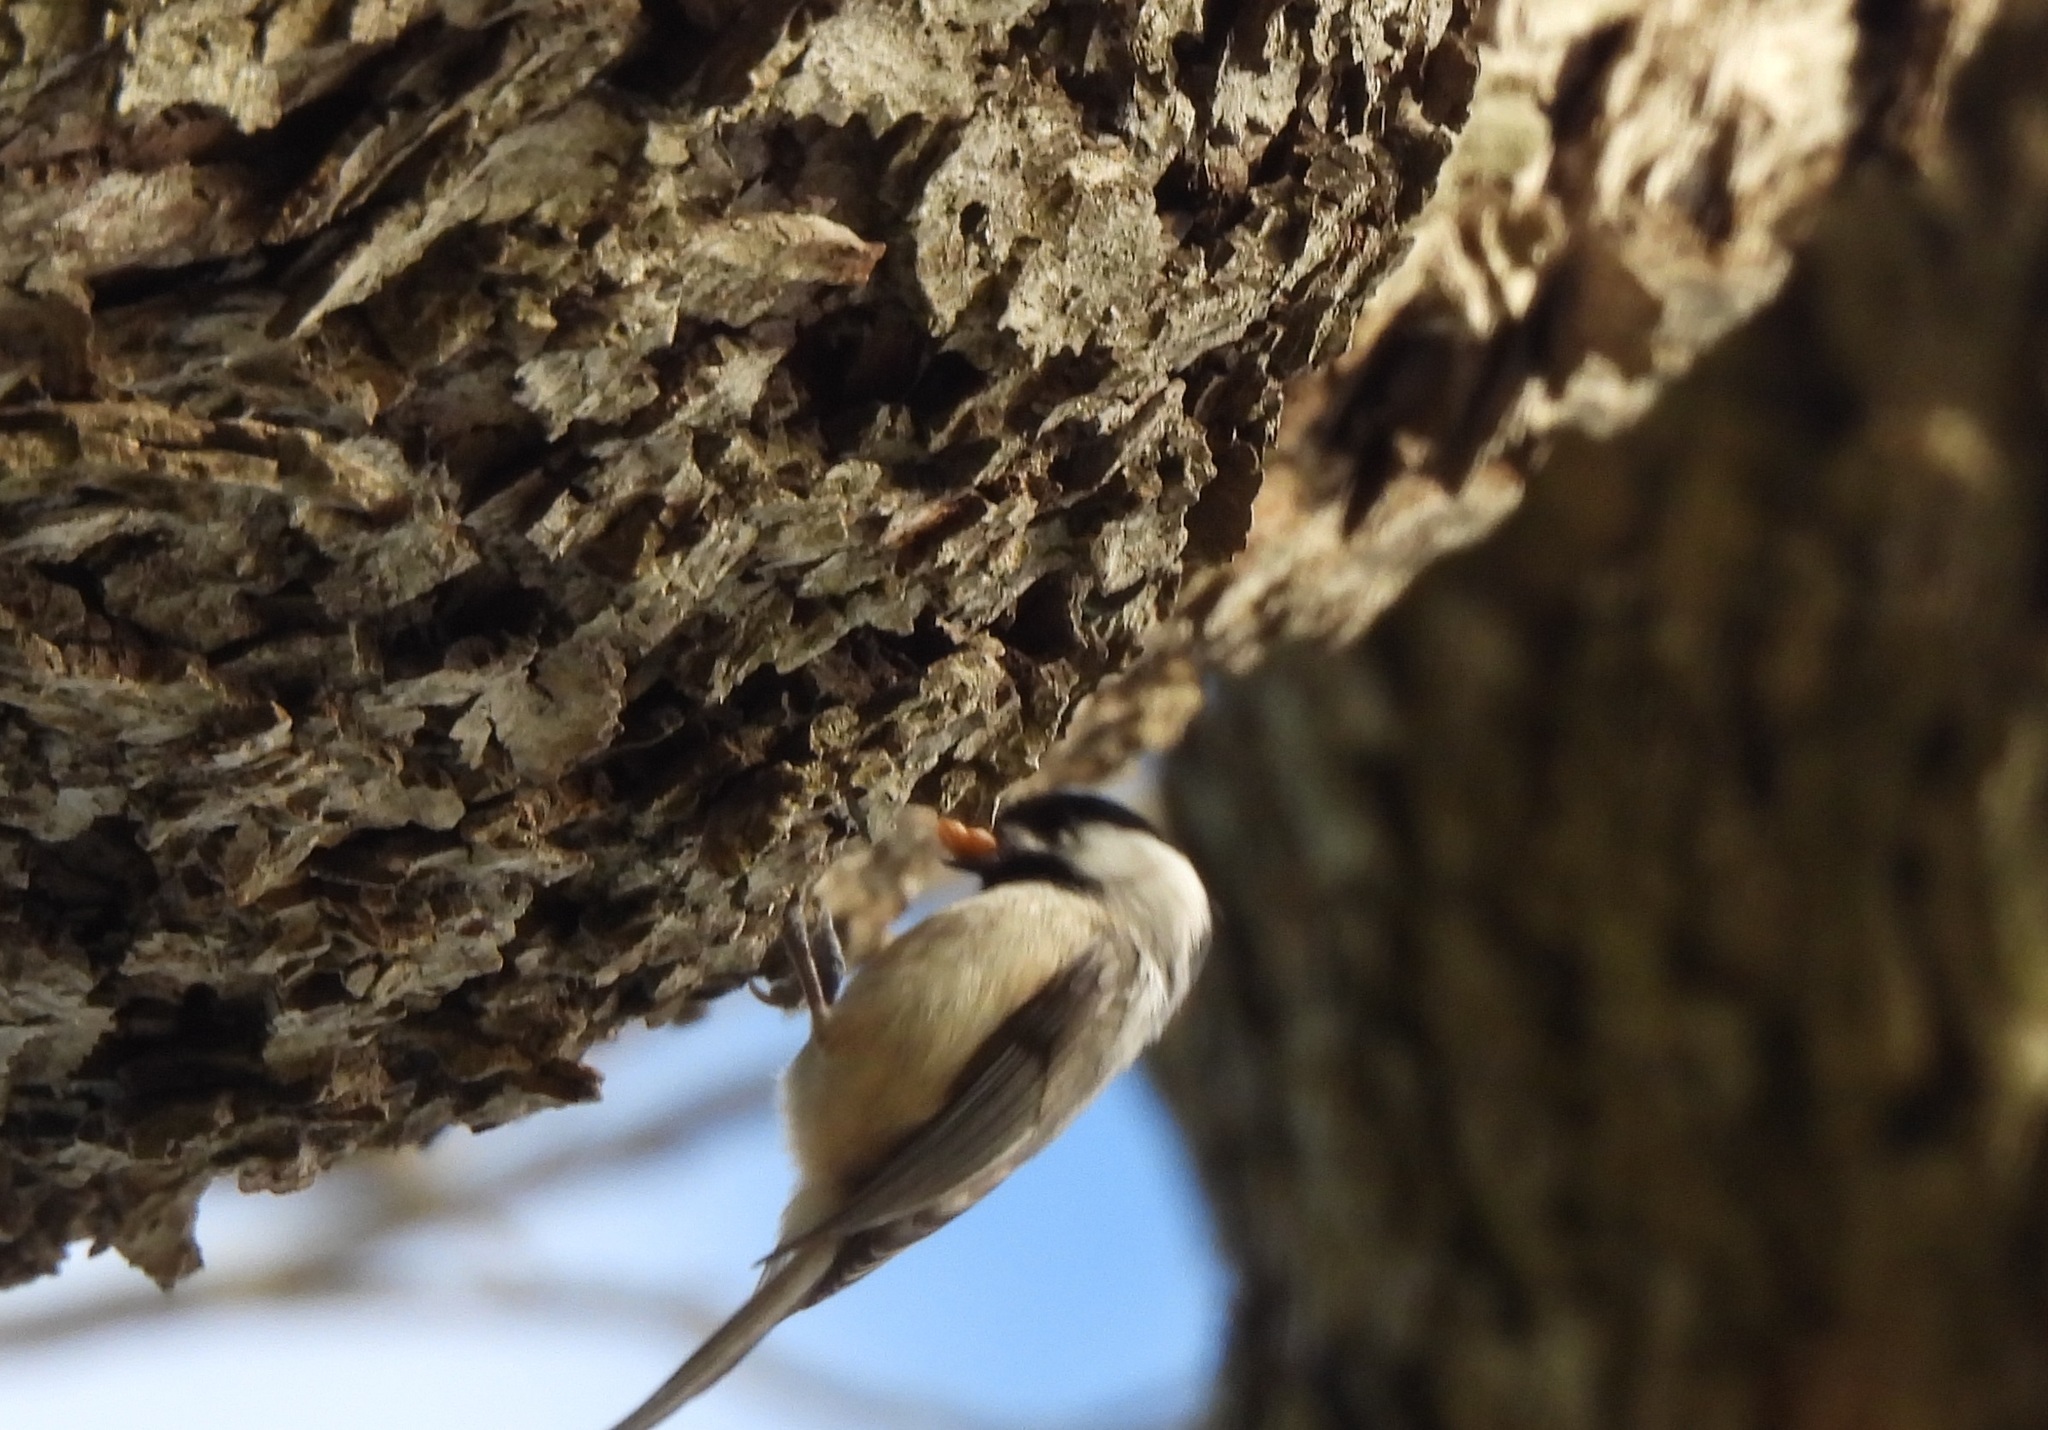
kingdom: Animalia
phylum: Chordata
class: Aves
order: Passeriformes
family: Paridae
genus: Poecile
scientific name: Poecile carolinensis
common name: Carolina chickadee
